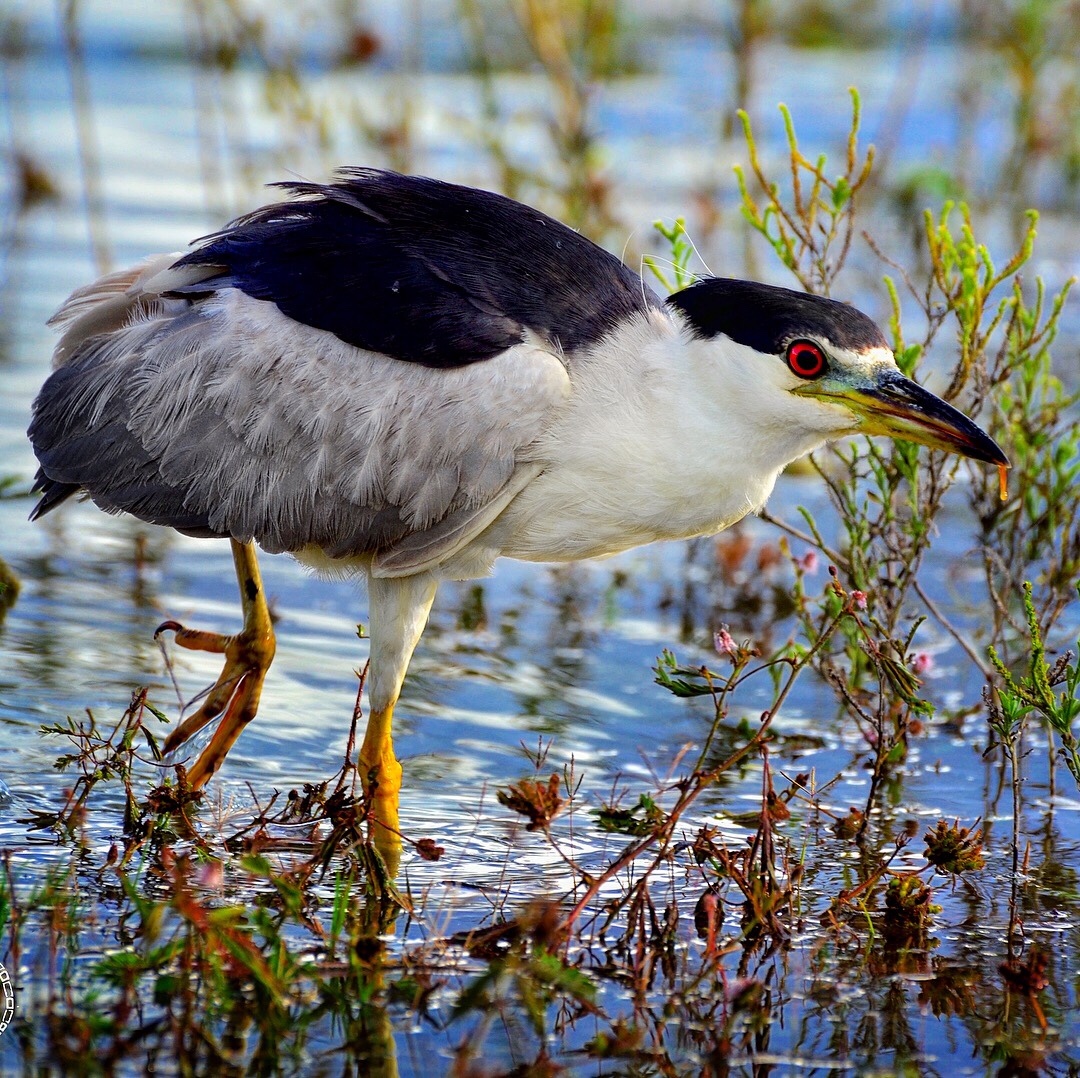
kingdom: Animalia
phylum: Chordata
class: Aves
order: Pelecaniformes
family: Ardeidae
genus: Nycticorax
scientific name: Nycticorax nycticorax
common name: Black-crowned night heron
